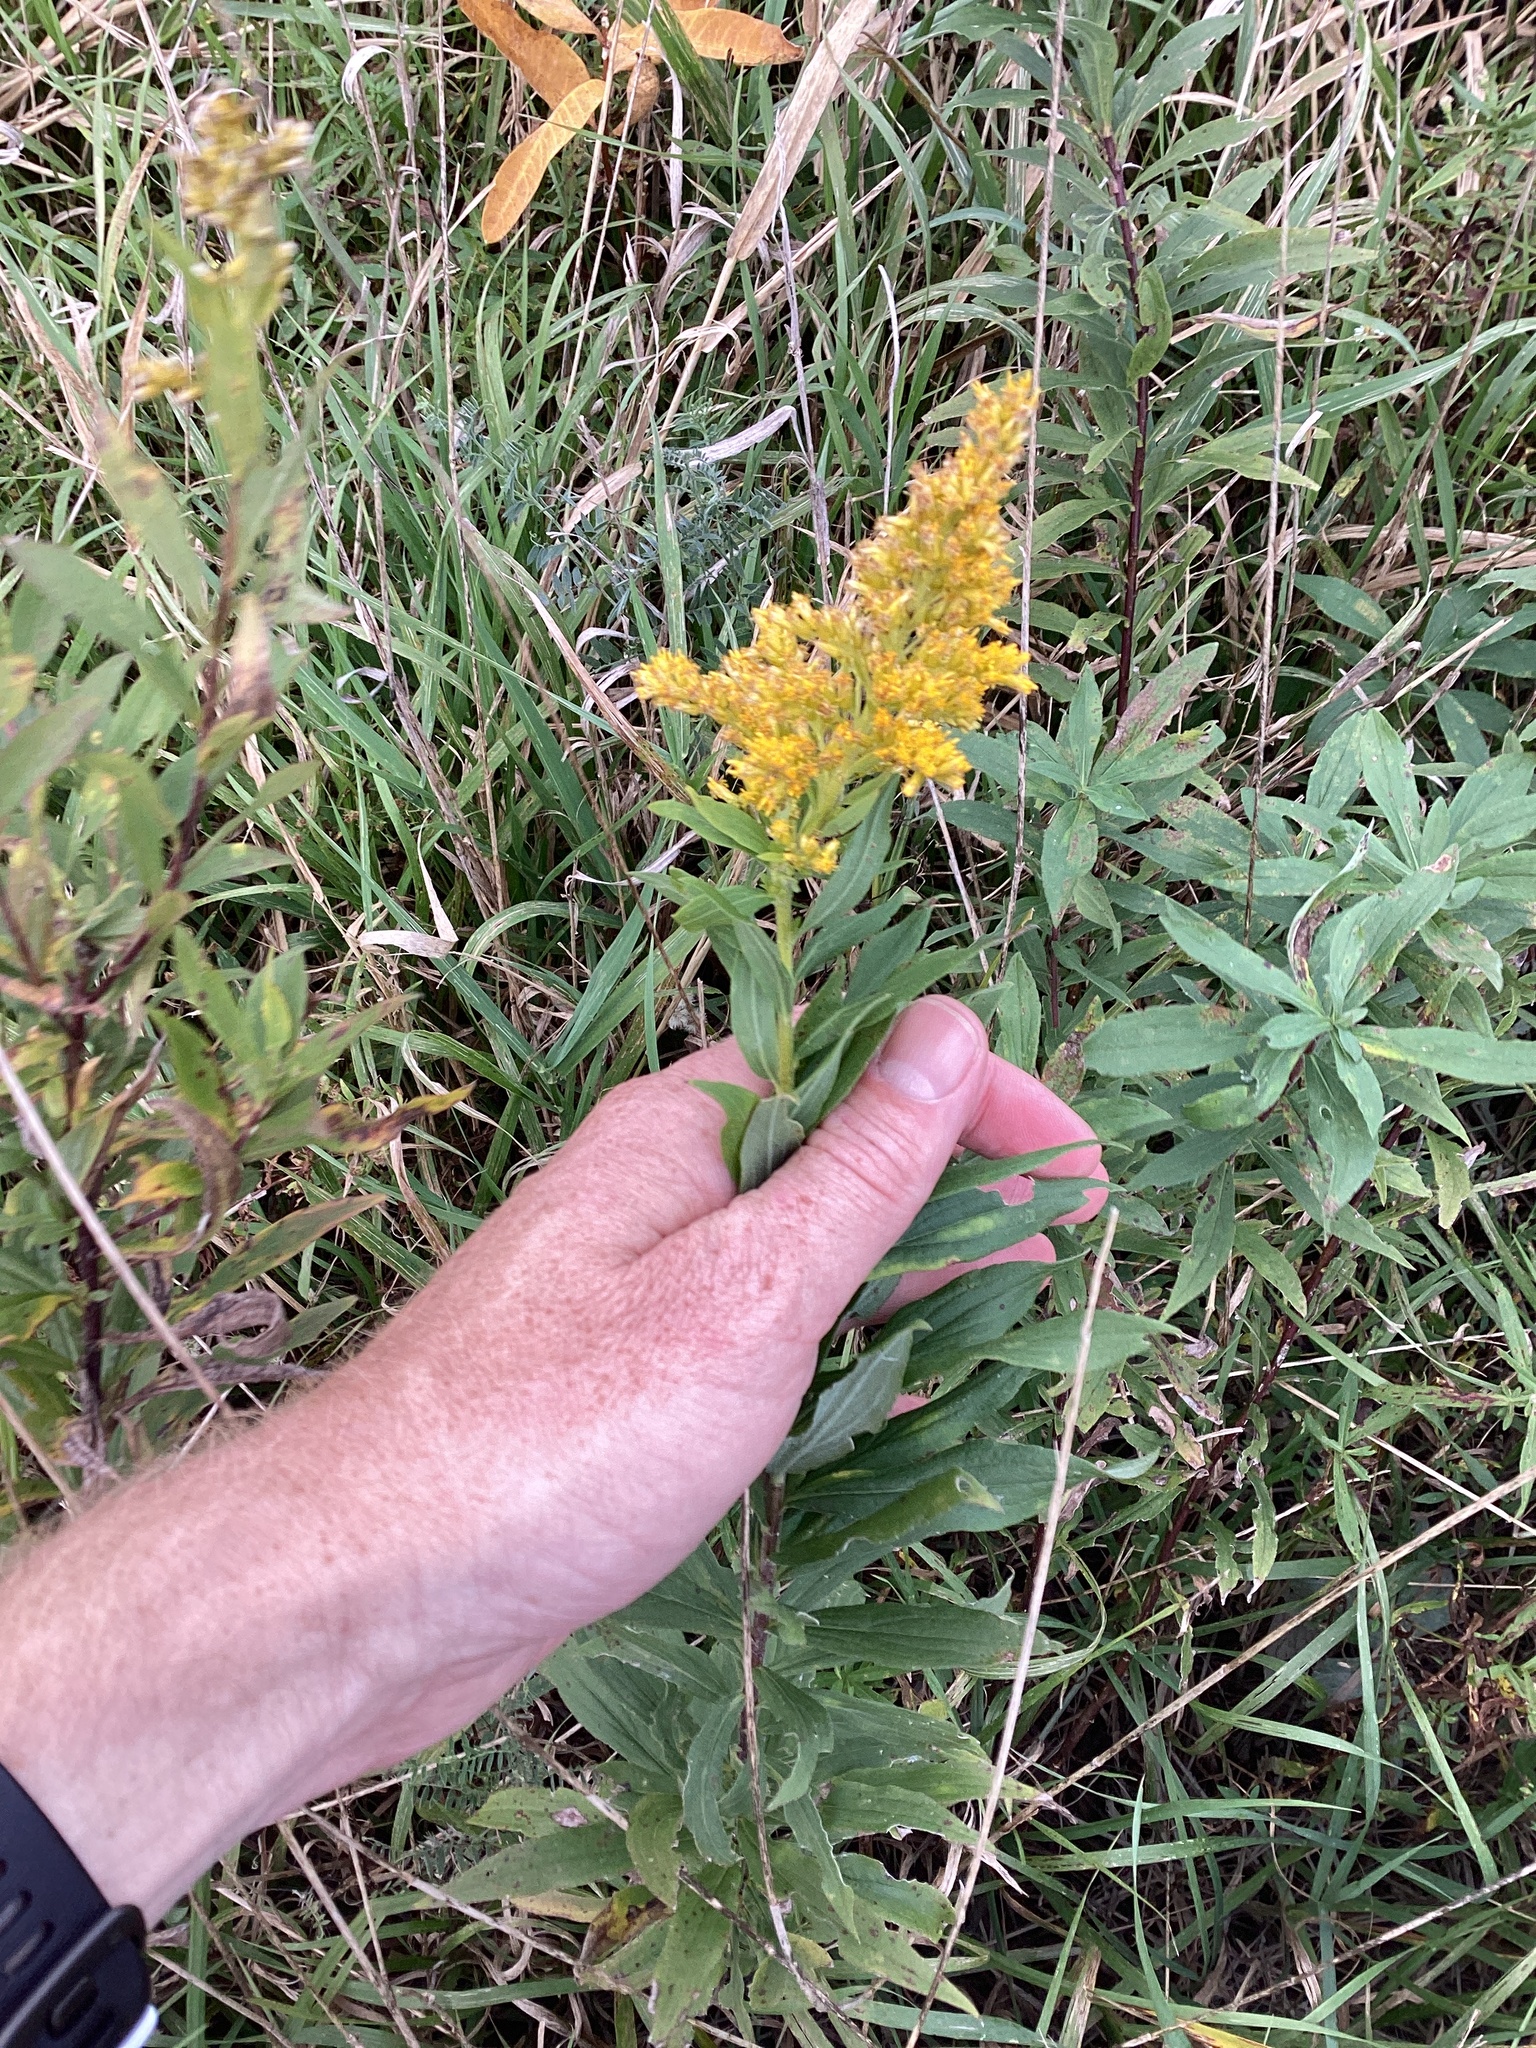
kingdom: Plantae
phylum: Tracheophyta
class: Magnoliopsida
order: Asterales
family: Asteraceae
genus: Solidago
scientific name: Solidago rugosa
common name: Rough-stemmed goldenrod
